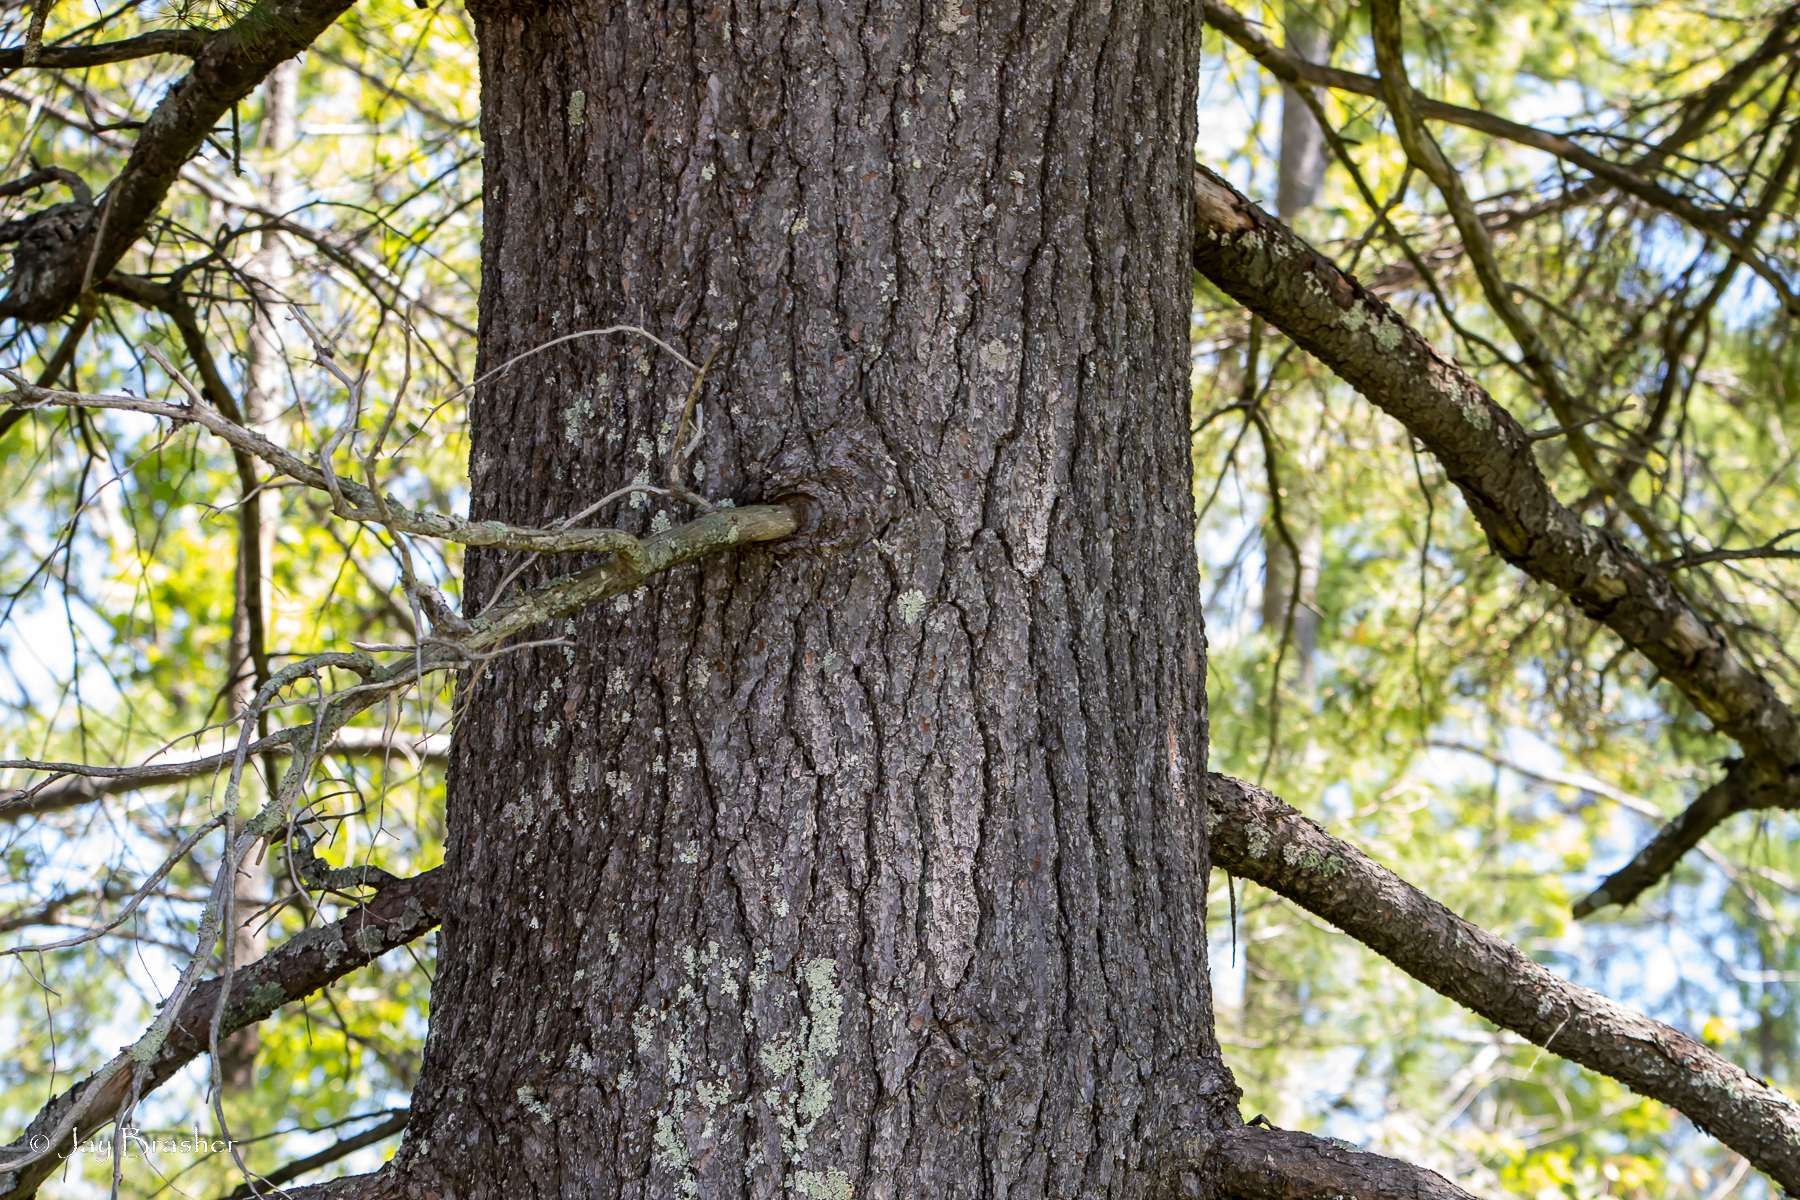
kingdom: Plantae
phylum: Tracheophyta
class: Pinopsida
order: Pinales
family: Pinaceae
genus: Pinus
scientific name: Pinus strobus
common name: Weymouth pine
